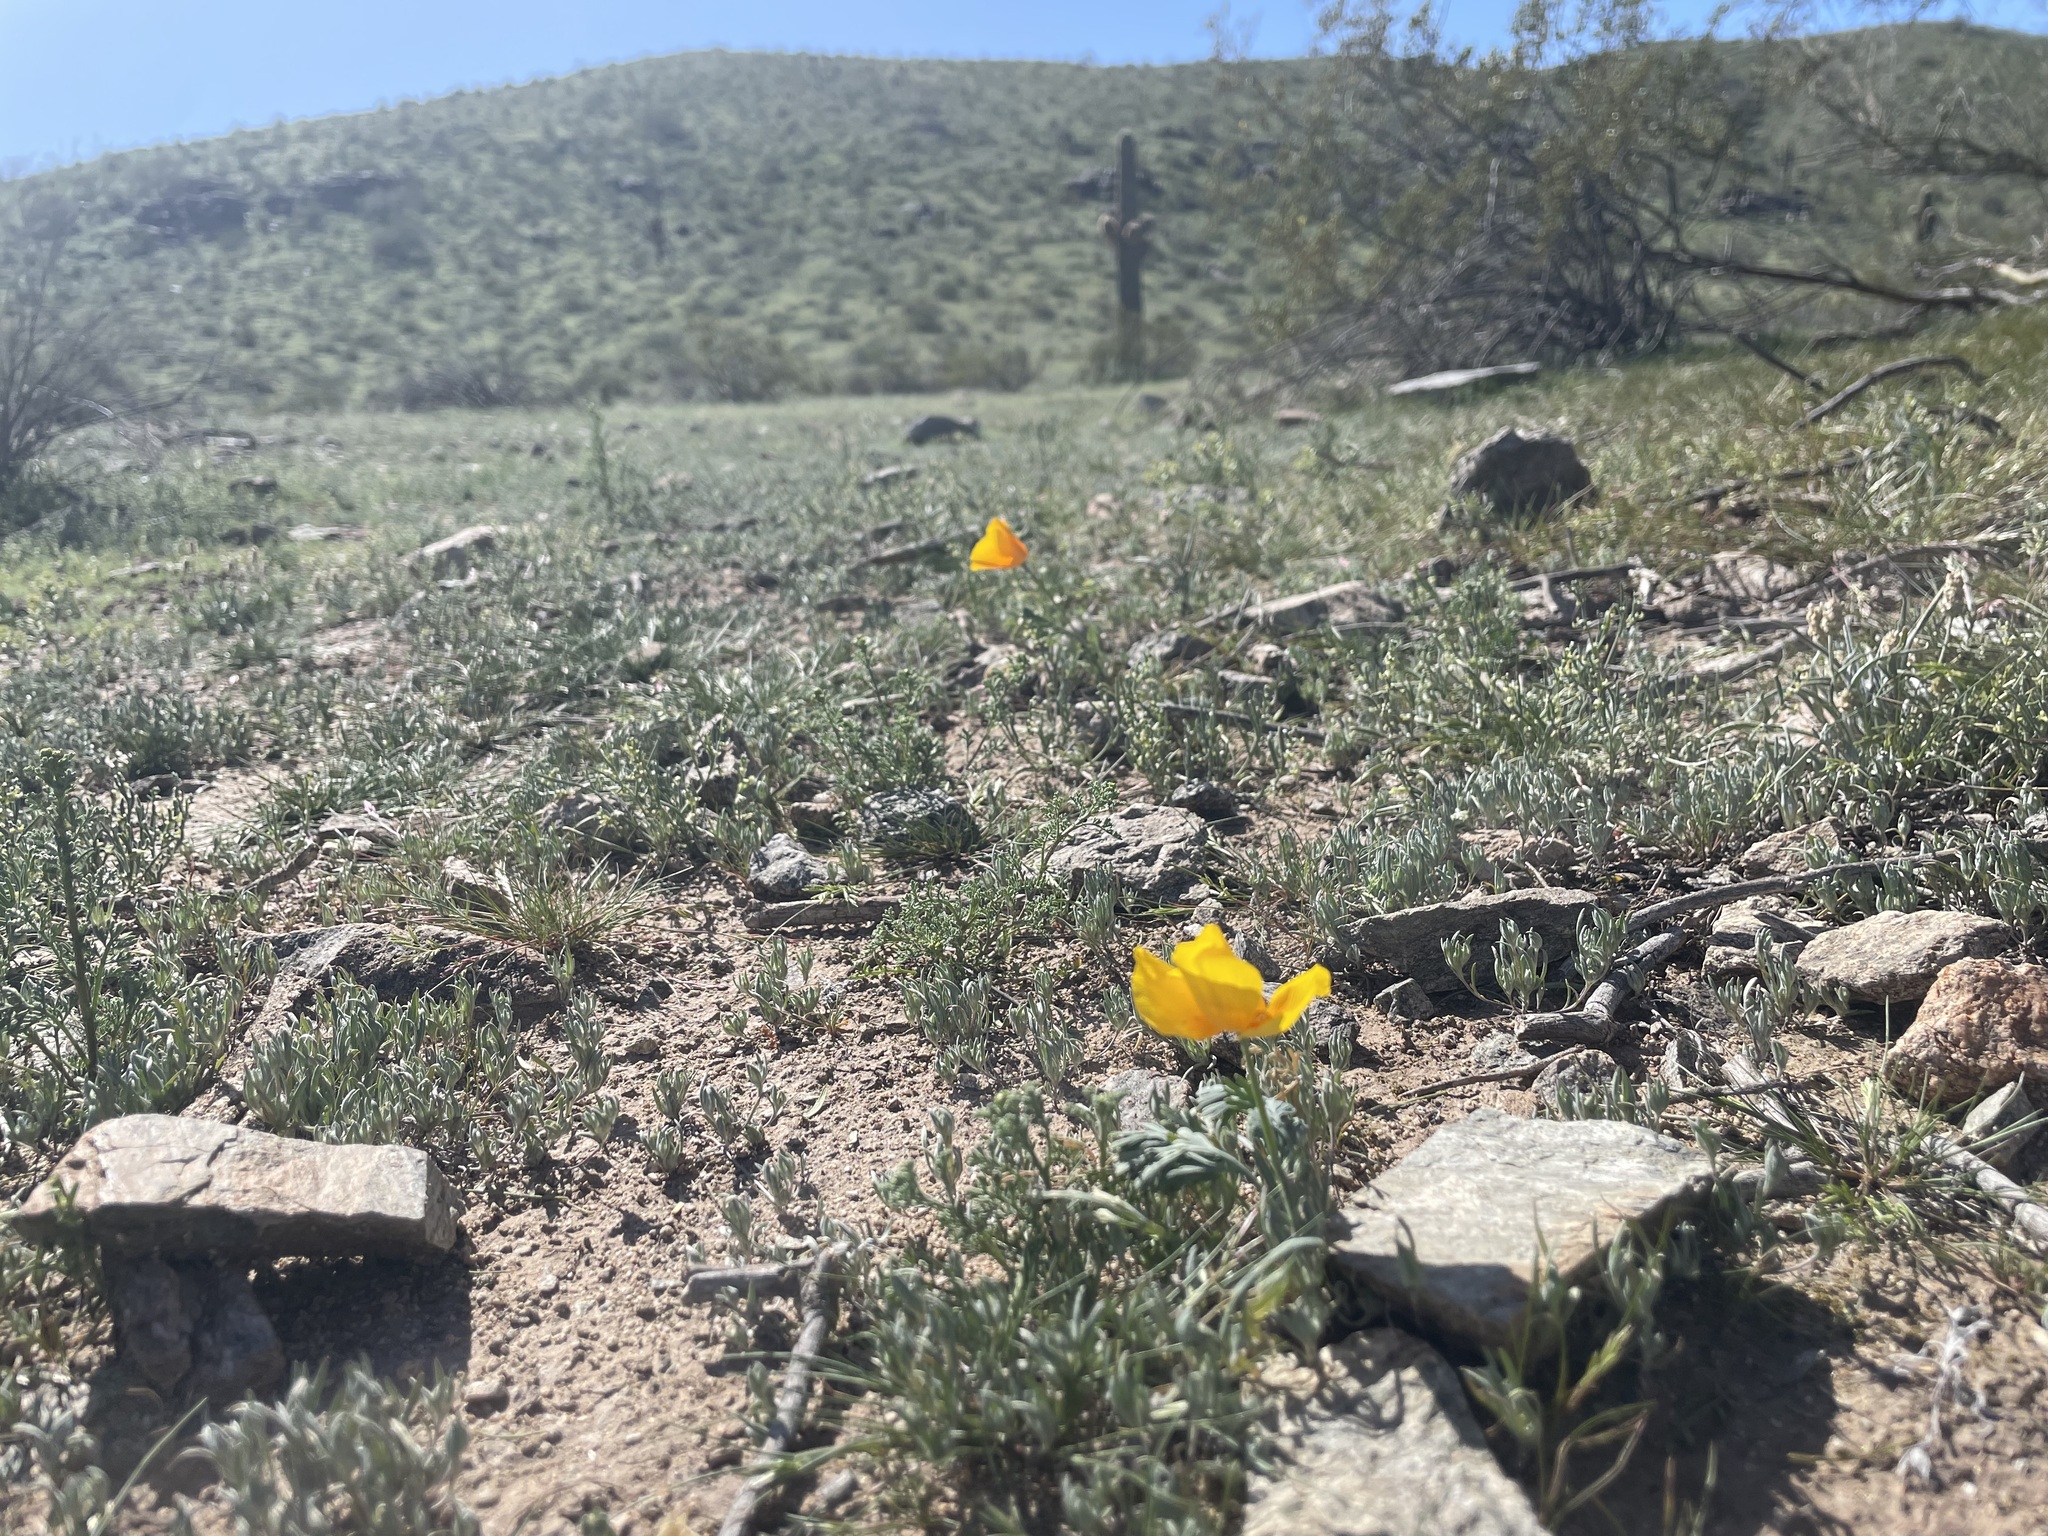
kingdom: Plantae
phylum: Tracheophyta
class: Magnoliopsida
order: Ranunculales
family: Papaveraceae
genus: Eschscholzia
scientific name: Eschscholzia californica
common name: California poppy
